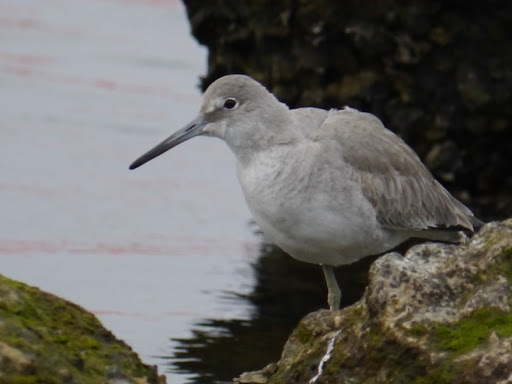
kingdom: Animalia
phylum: Chordata
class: Aves
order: Charadriiformes
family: Scolopacidae
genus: Tringa
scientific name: Tringa semipalmata
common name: Willet
